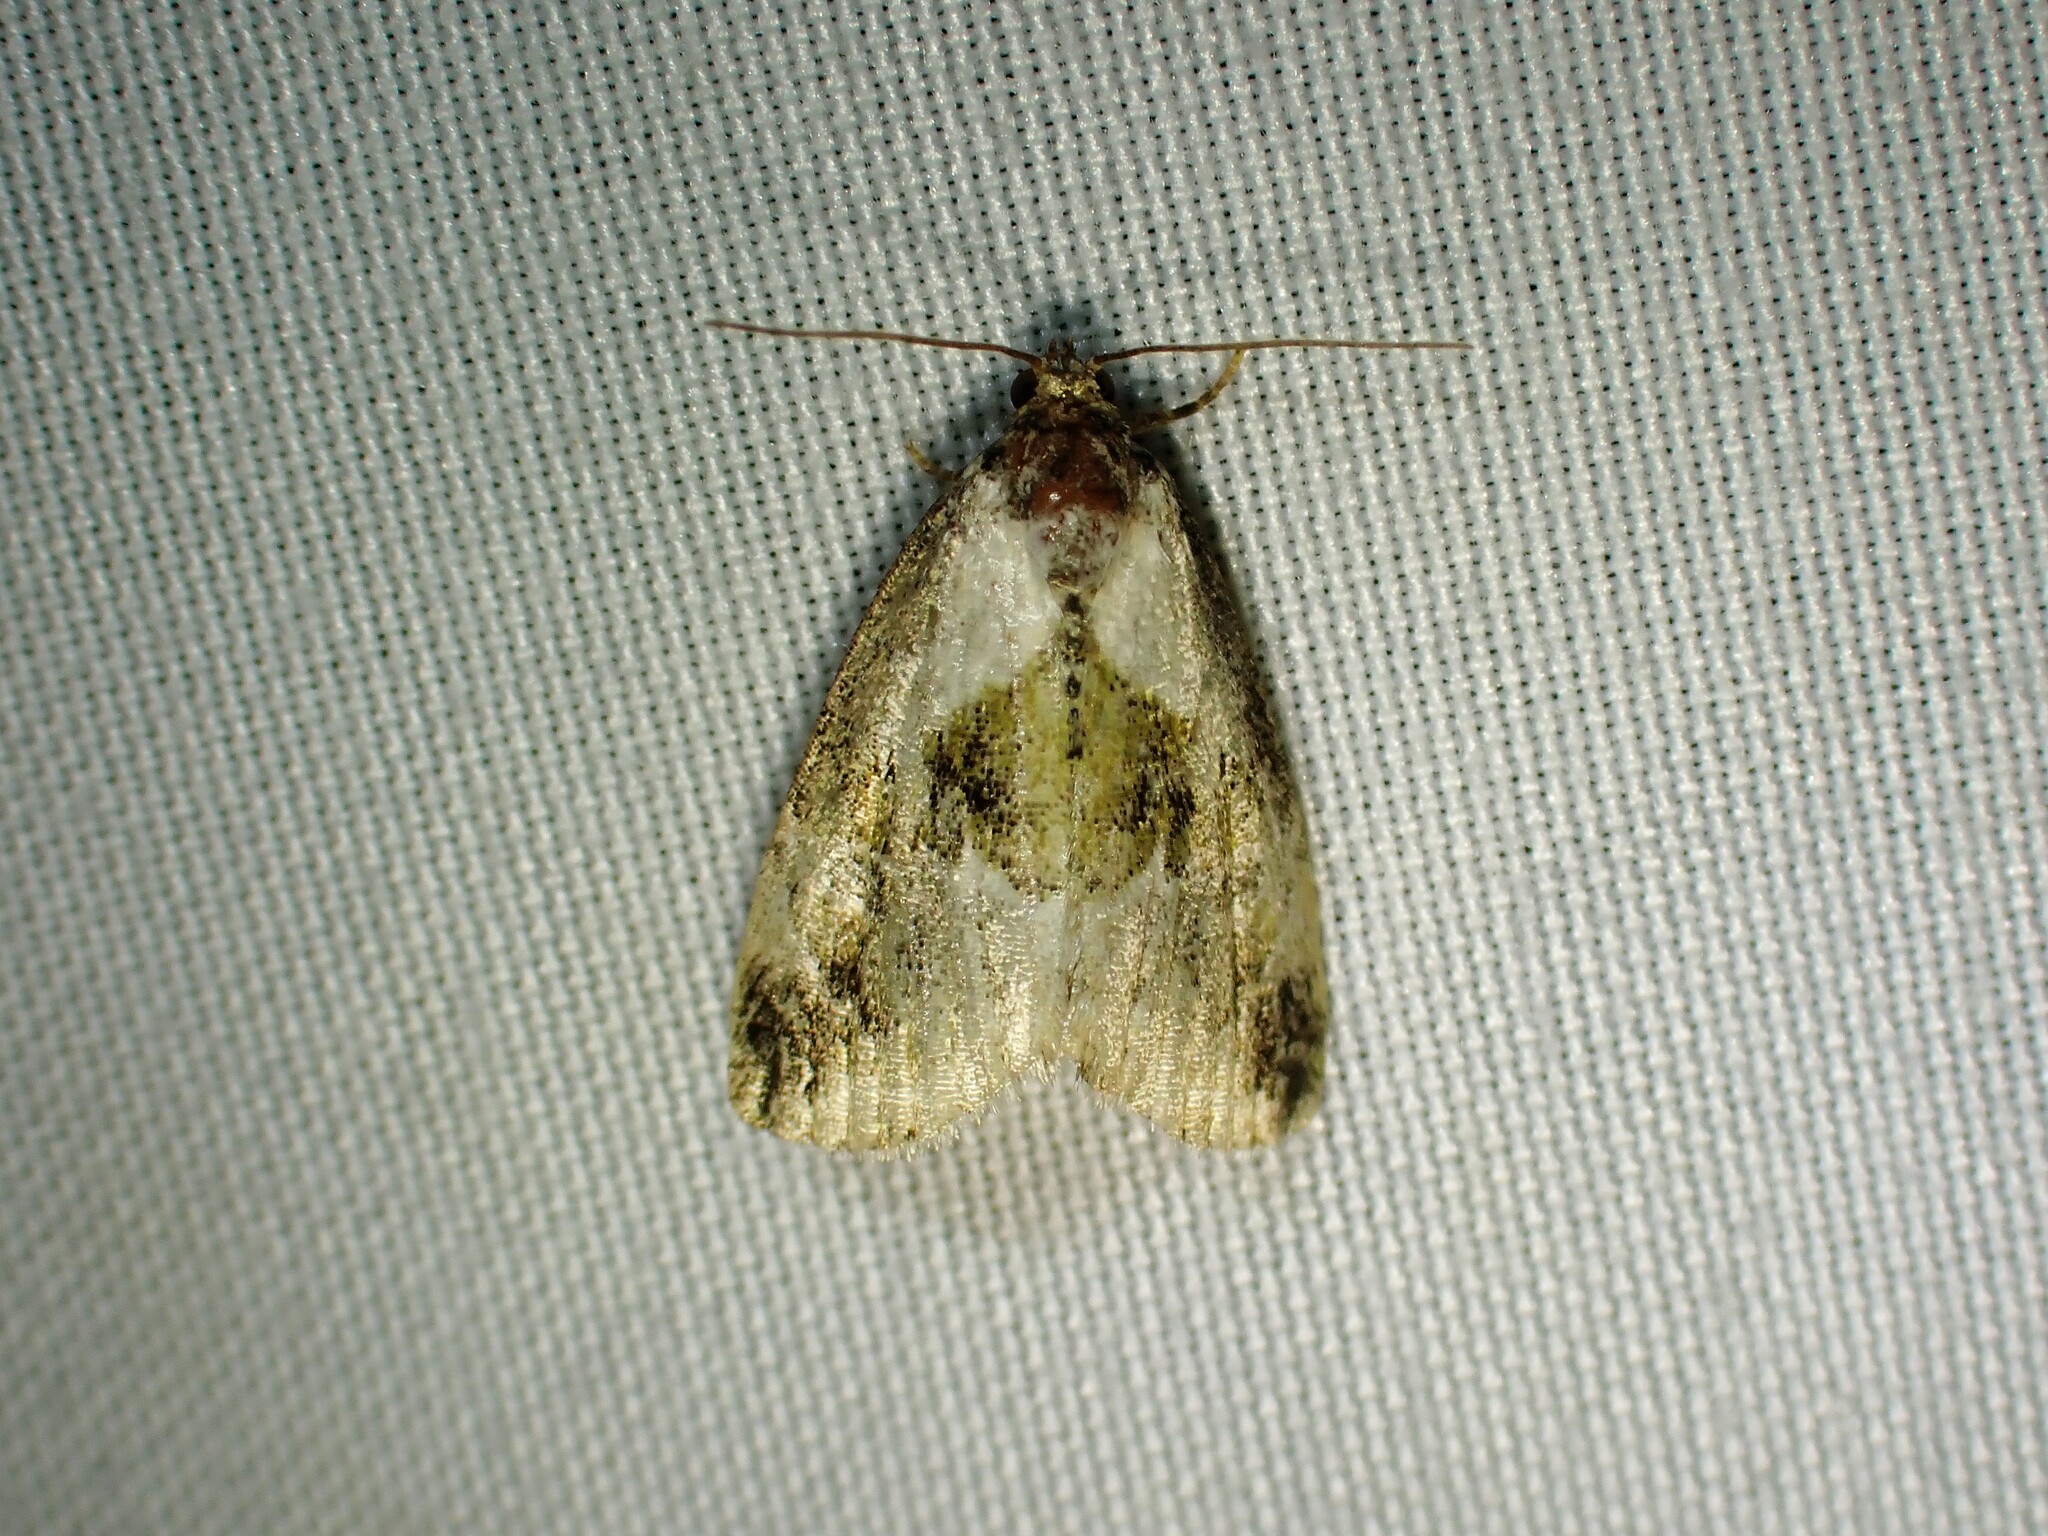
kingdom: Animalia
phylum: Arthropoda
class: Insecta
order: Lepidoptera
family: Noctuidae
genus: Maliattha
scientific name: Maliattha synochitis
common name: Black-dotted glyph
